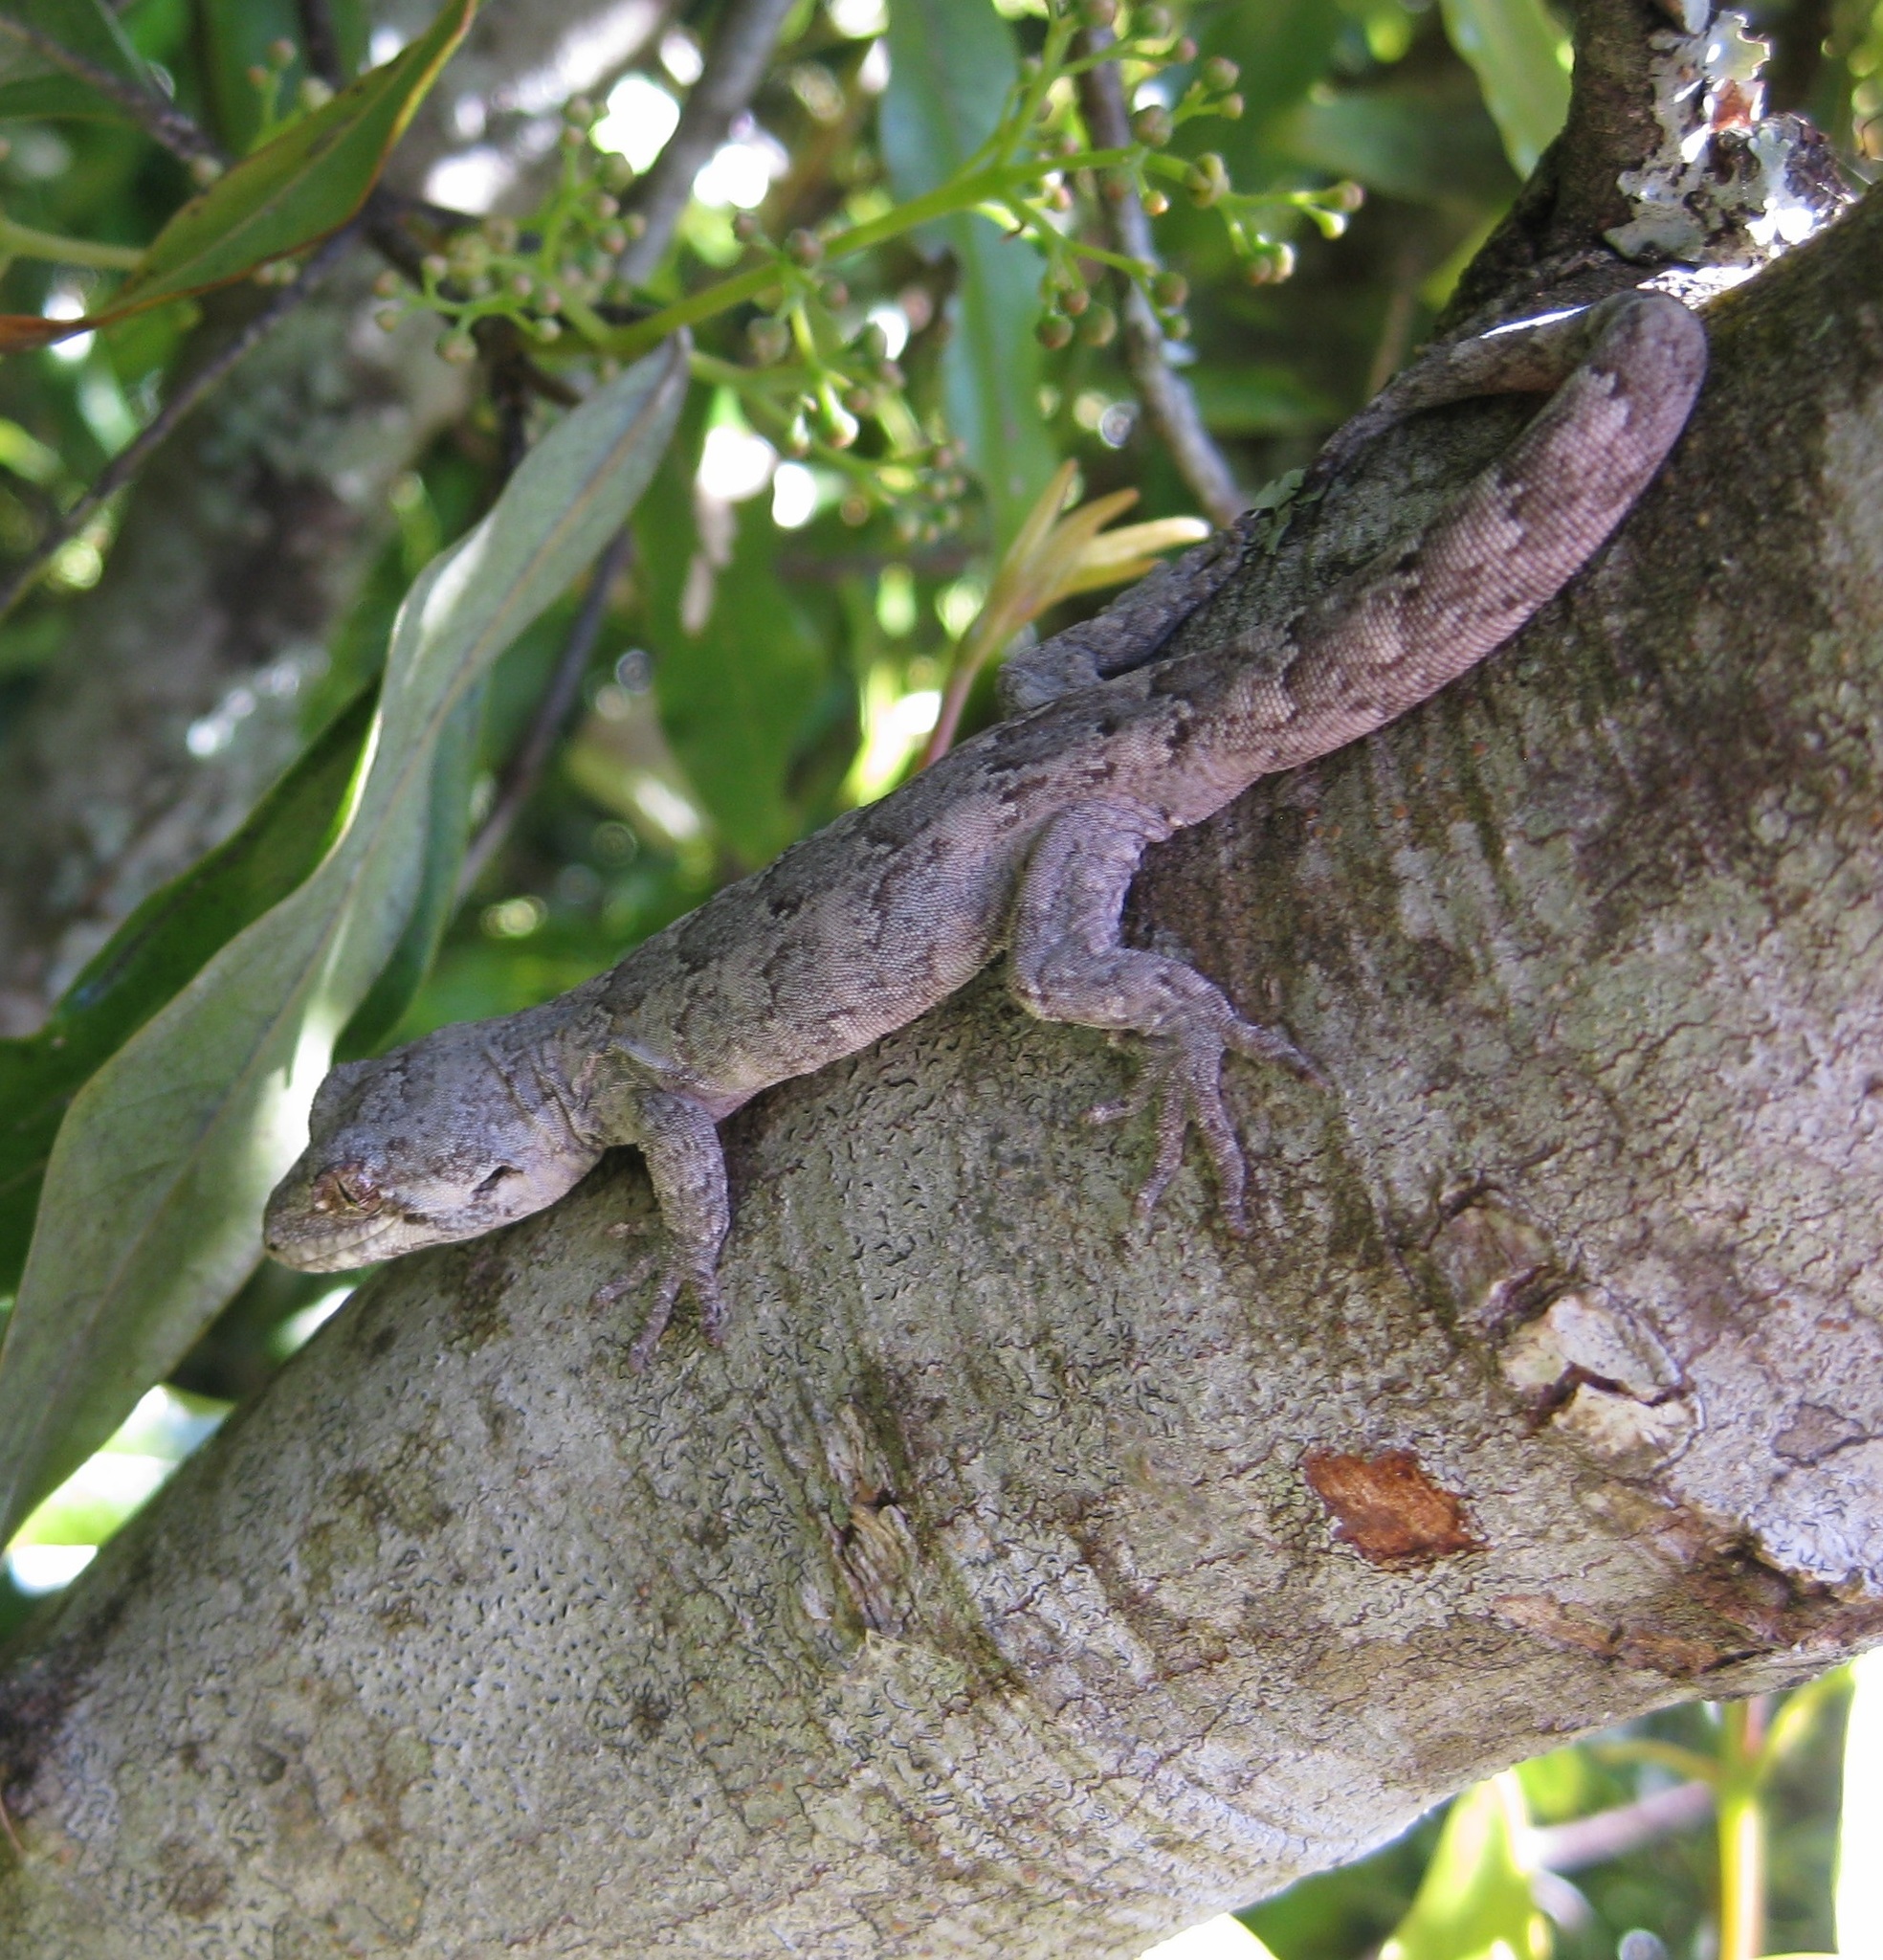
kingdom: Animalia
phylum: Chordata
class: Squamata
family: Diplodactylidae
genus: Mokopirirakau
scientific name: Mokopirirakau
